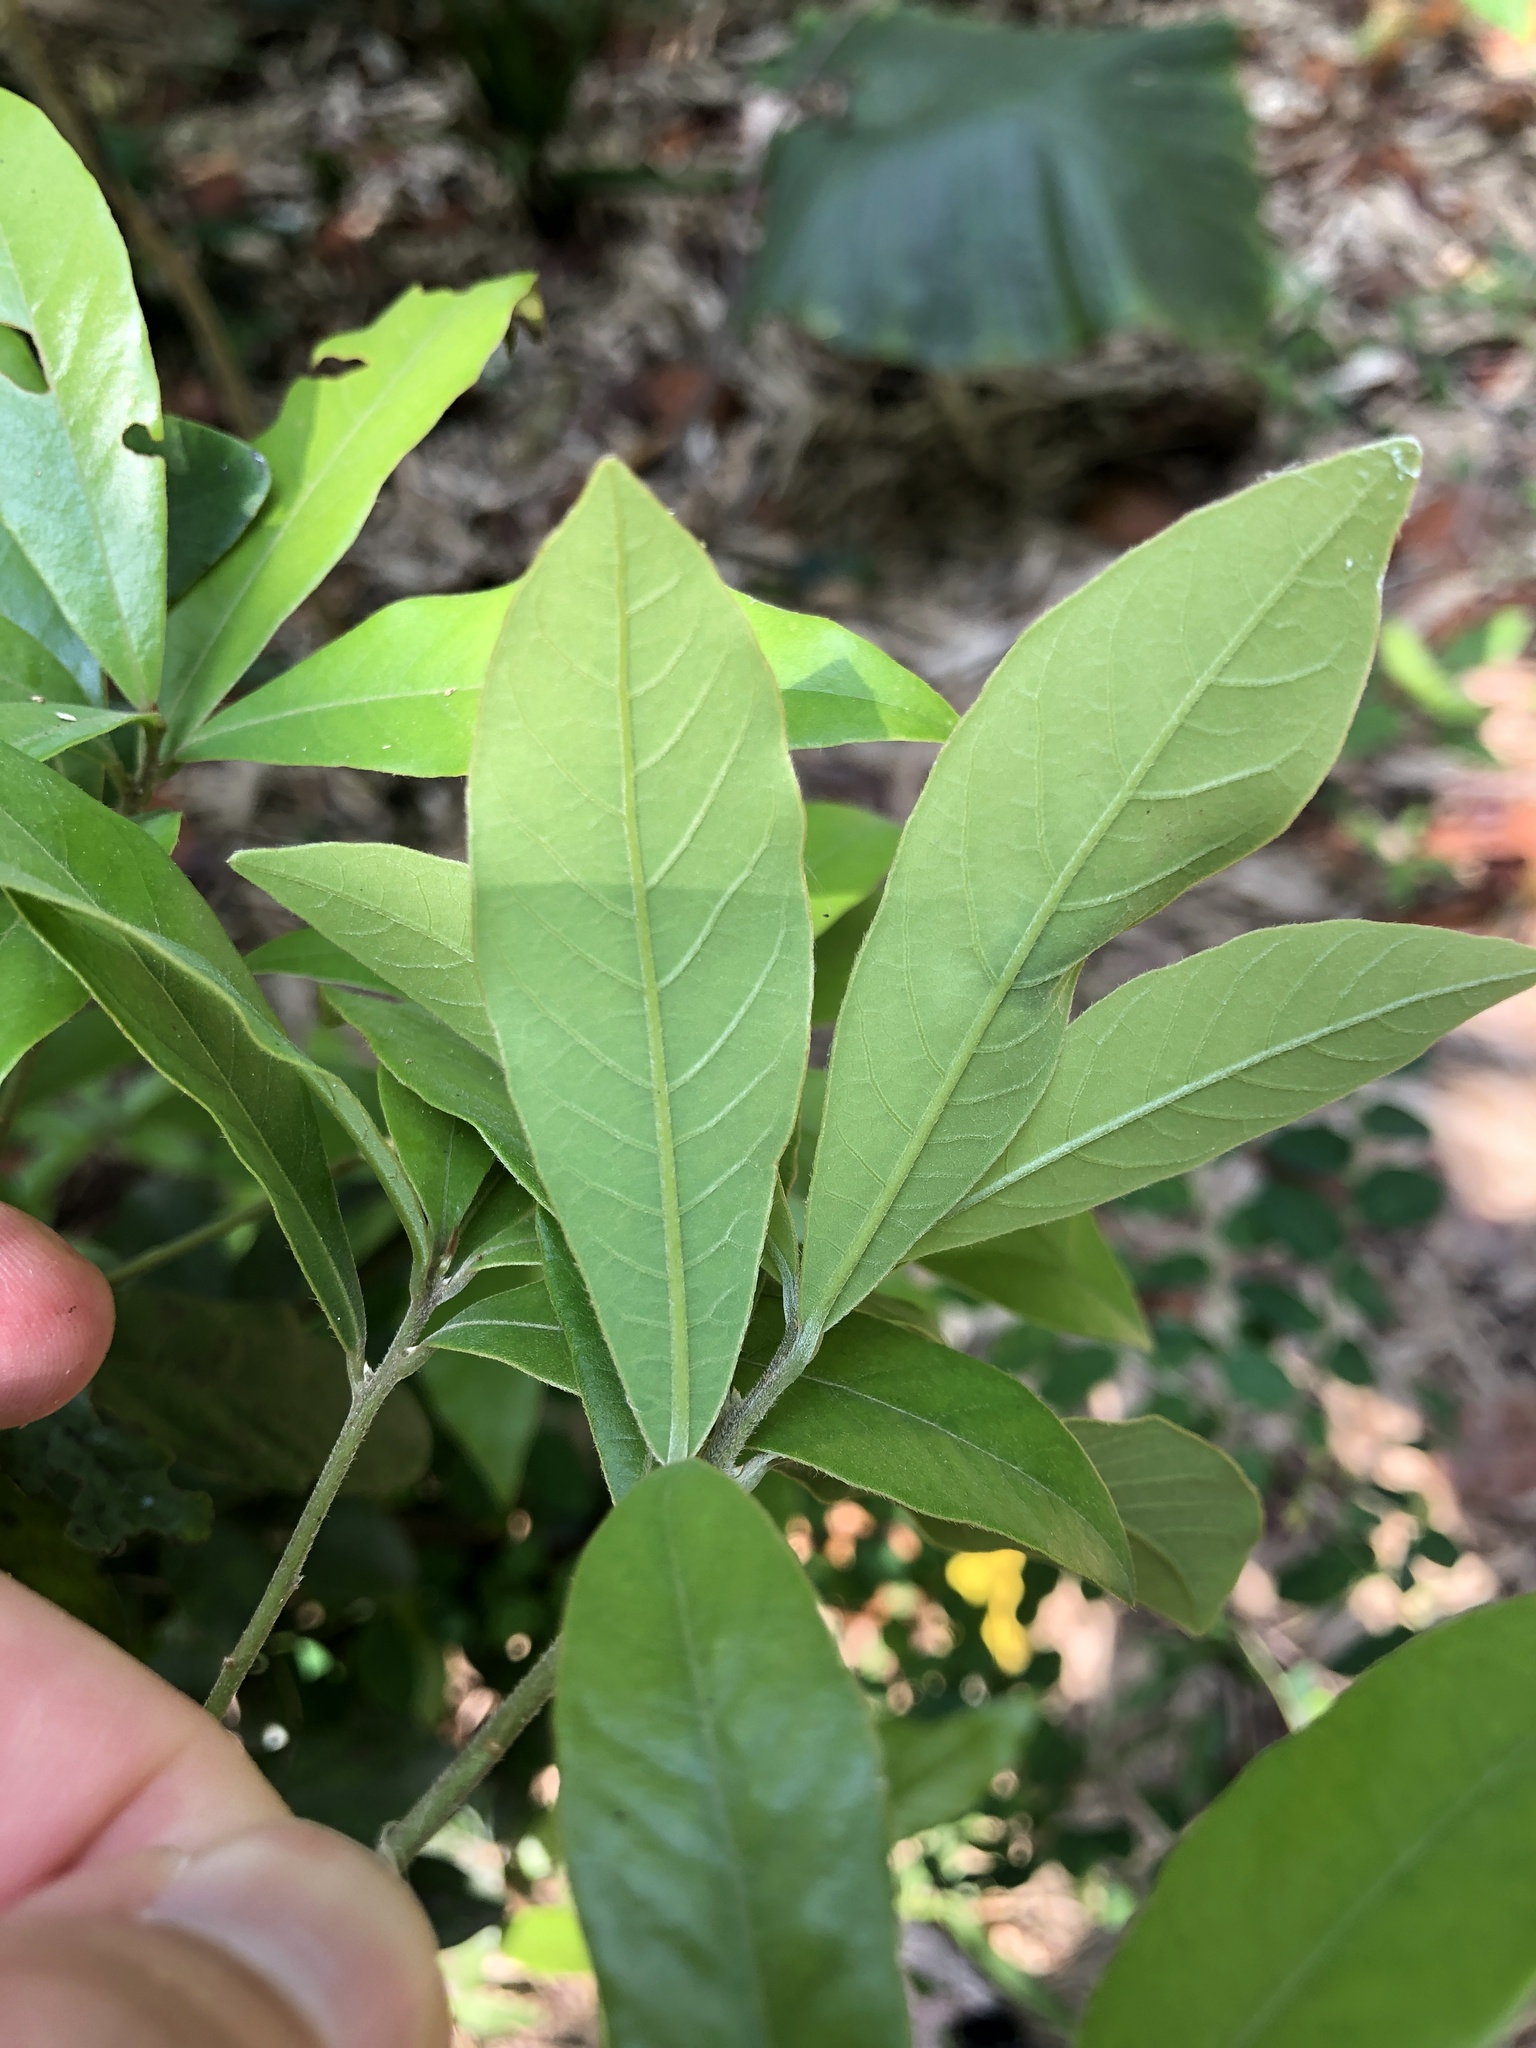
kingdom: Plantae
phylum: Tracheophyta
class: Magnoliopsida
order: Laurales
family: Lauraceae
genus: Litsea
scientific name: Litsea hypophaea
